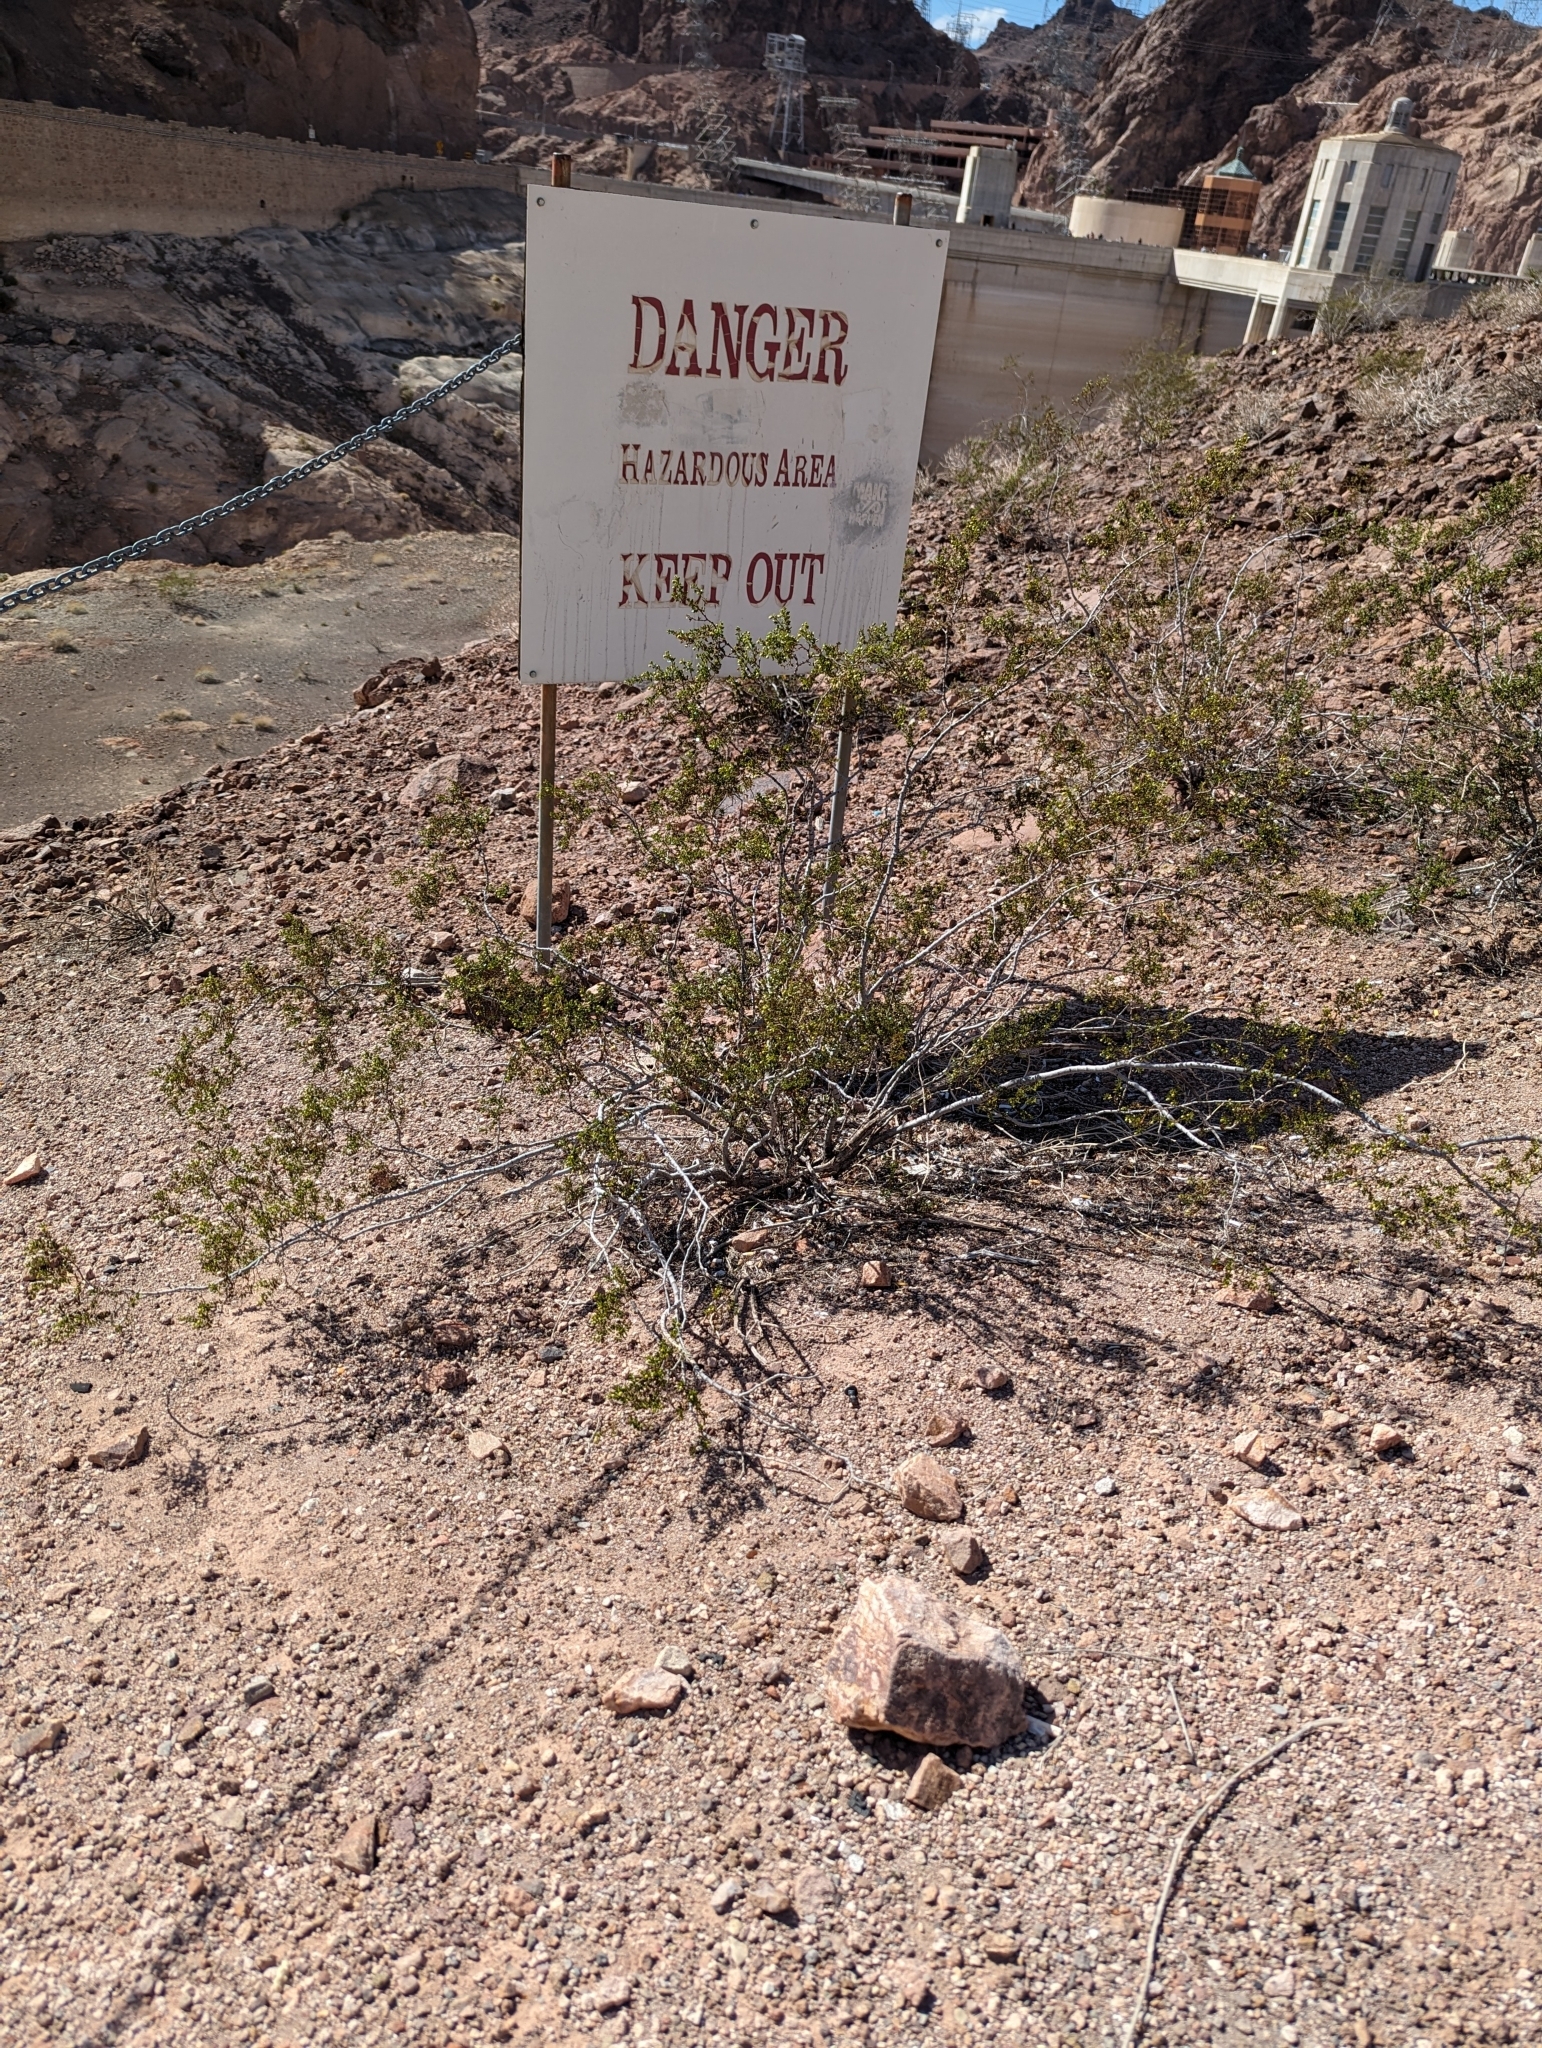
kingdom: Plantae
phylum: Tracheophyta
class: Magnoliopsida
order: Zygophyllales
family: Zygophyllaceae
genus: Larrea
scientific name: Larrea tridentata
